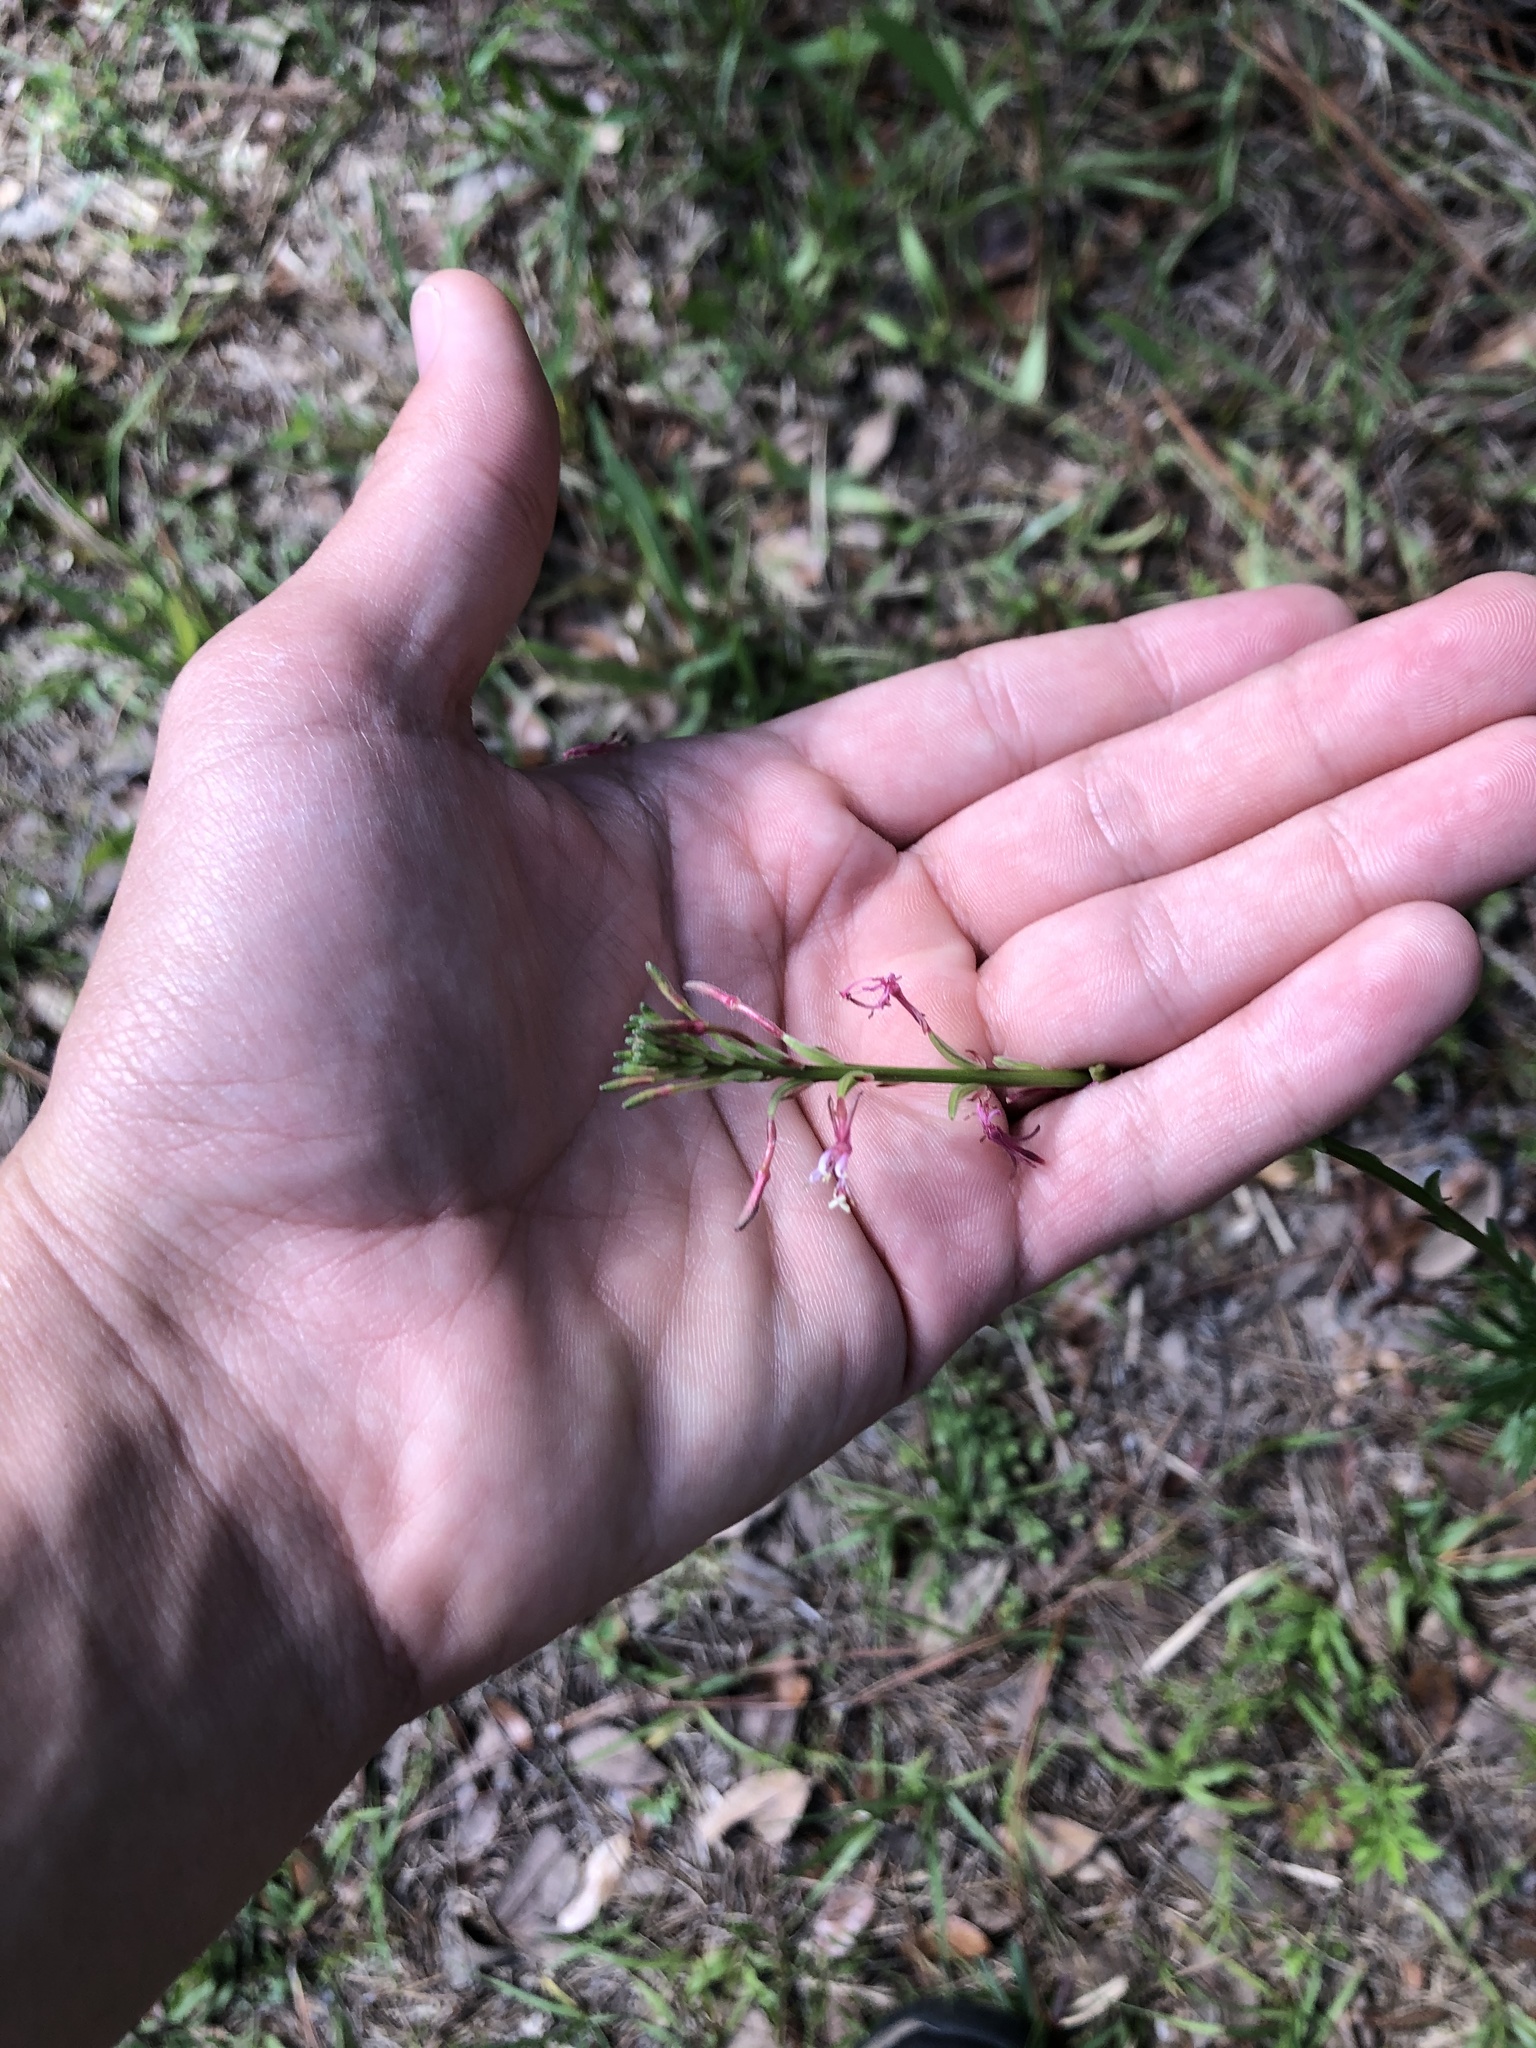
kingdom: Plantae
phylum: Tracheophyta
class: Magnoliopsida
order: Myrtales
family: Onagraceae
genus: Oenothera
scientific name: Oenothera simulans
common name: Southern beeblossom
